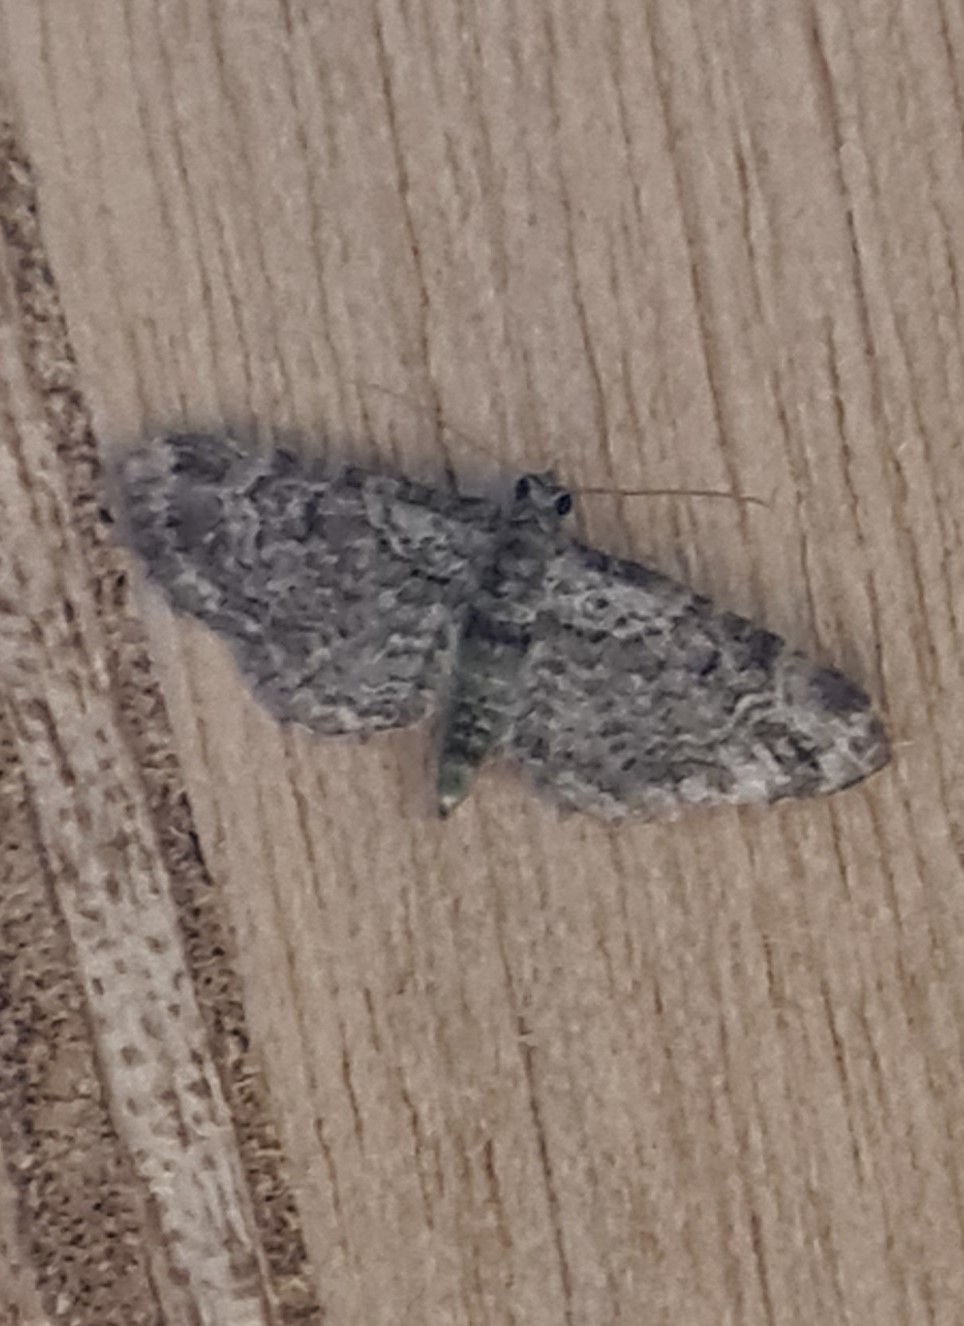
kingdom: Animalia
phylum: Arthropoda
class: Insecta
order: Lepidoptera
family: Geometridae
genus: Pasiphila
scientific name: Pasiphila rectangulata
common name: Green pug
